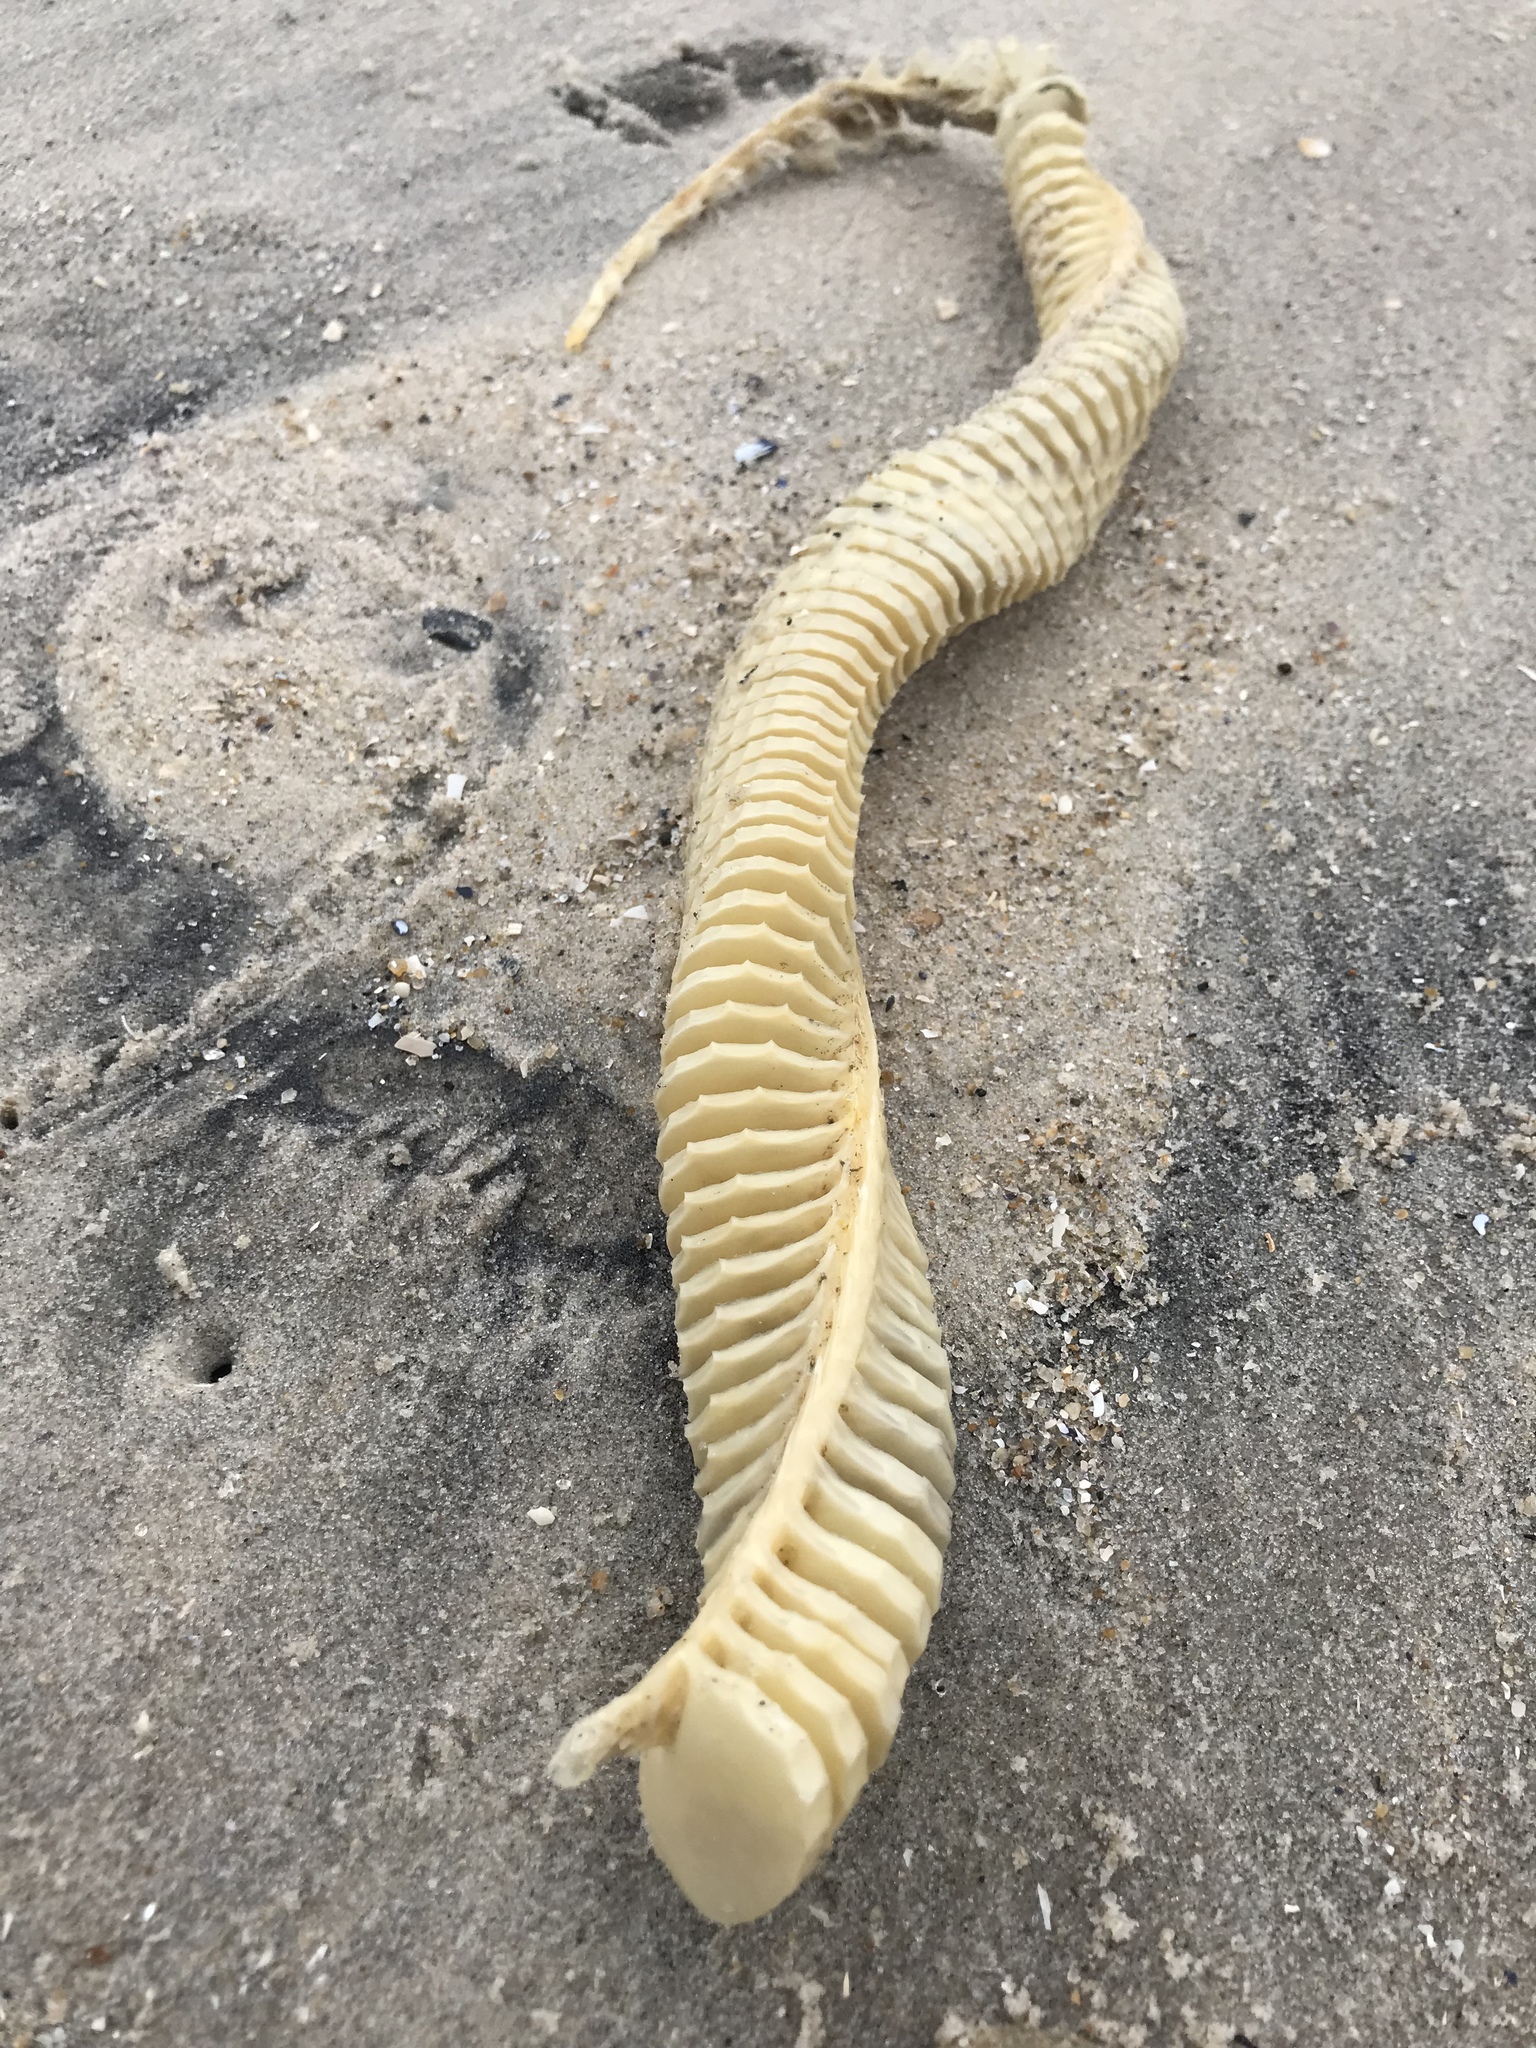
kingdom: Animalia
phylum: Mollusca
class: Gastropoda
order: Neogastropoda
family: Busyconidae
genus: Busycon
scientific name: Busycon carica
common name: Knobbed whelk
